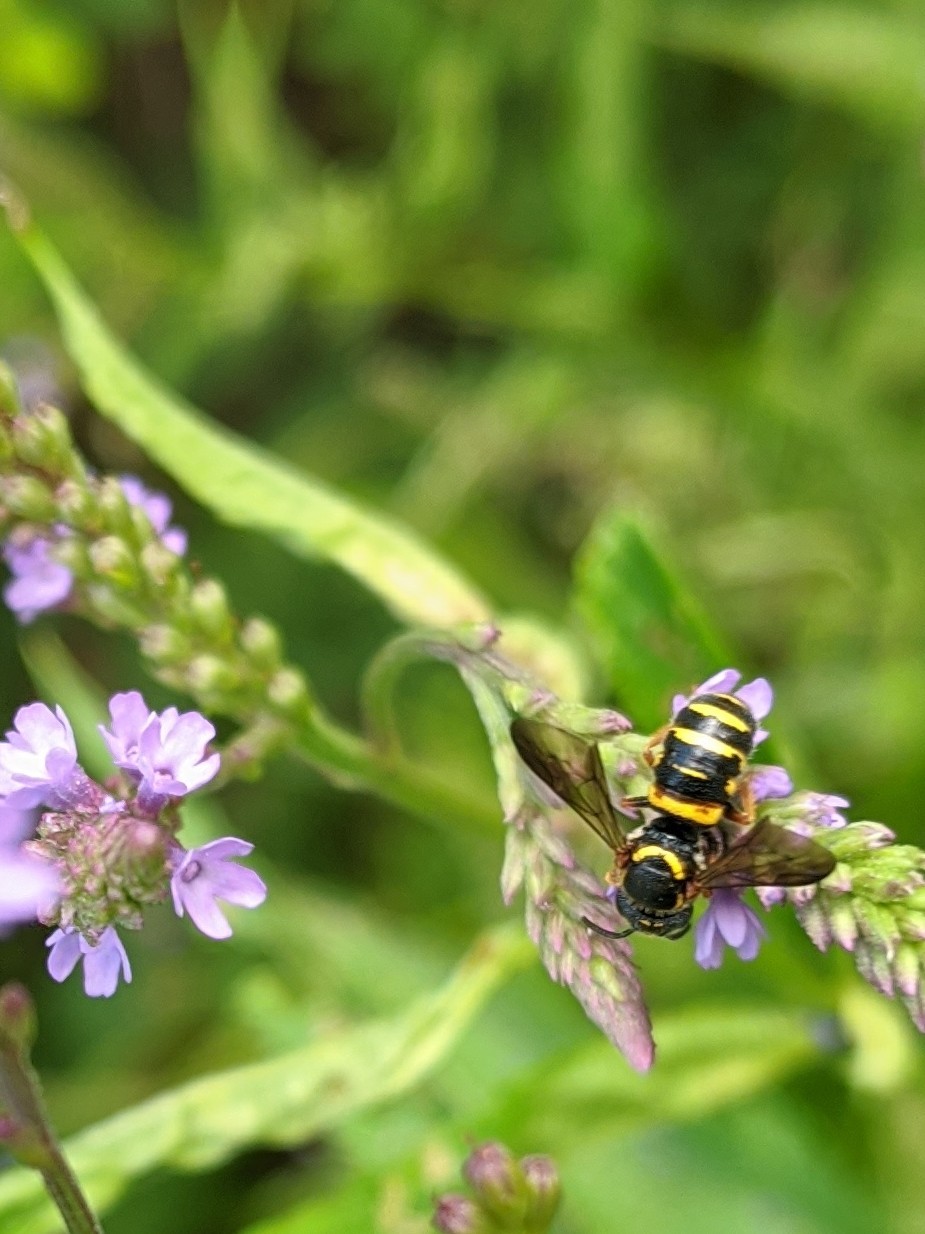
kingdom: Animalia
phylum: Arthropoda
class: Insecta
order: Hymenoptera
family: Megachilidae
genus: Stelis
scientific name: Stelis louisae
